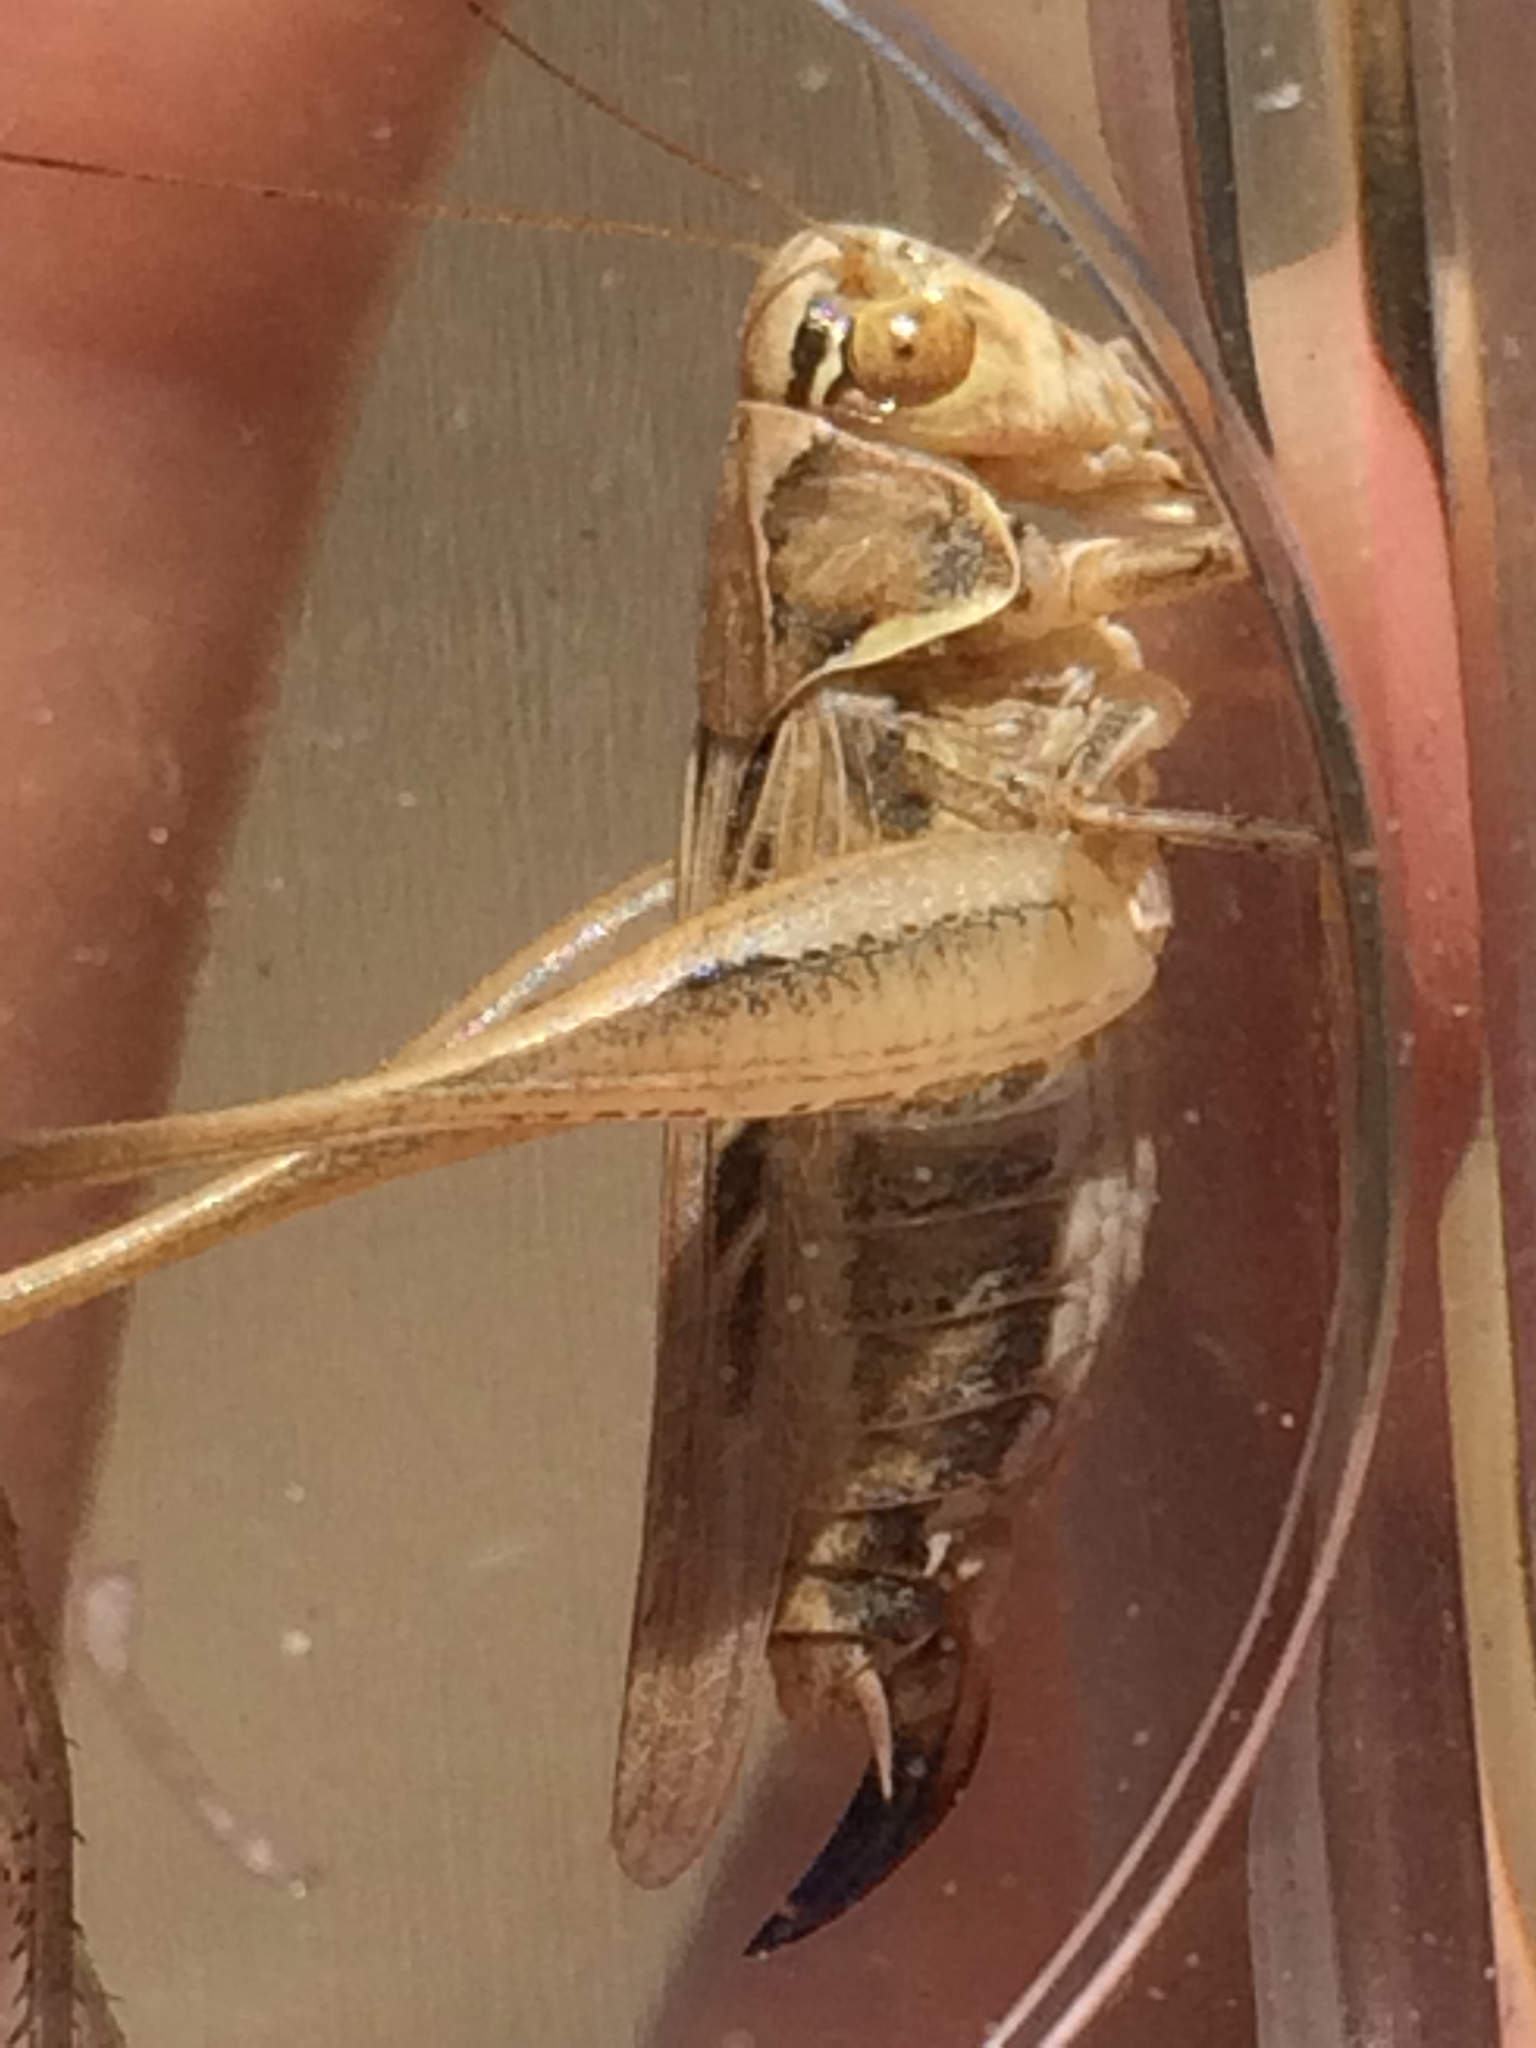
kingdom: Animalia
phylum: Arthropoda
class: Insecta
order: Orthoptera
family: Tettigoniidae
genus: Tessellana
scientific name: Tessellana tessellata
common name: Grasshopper
